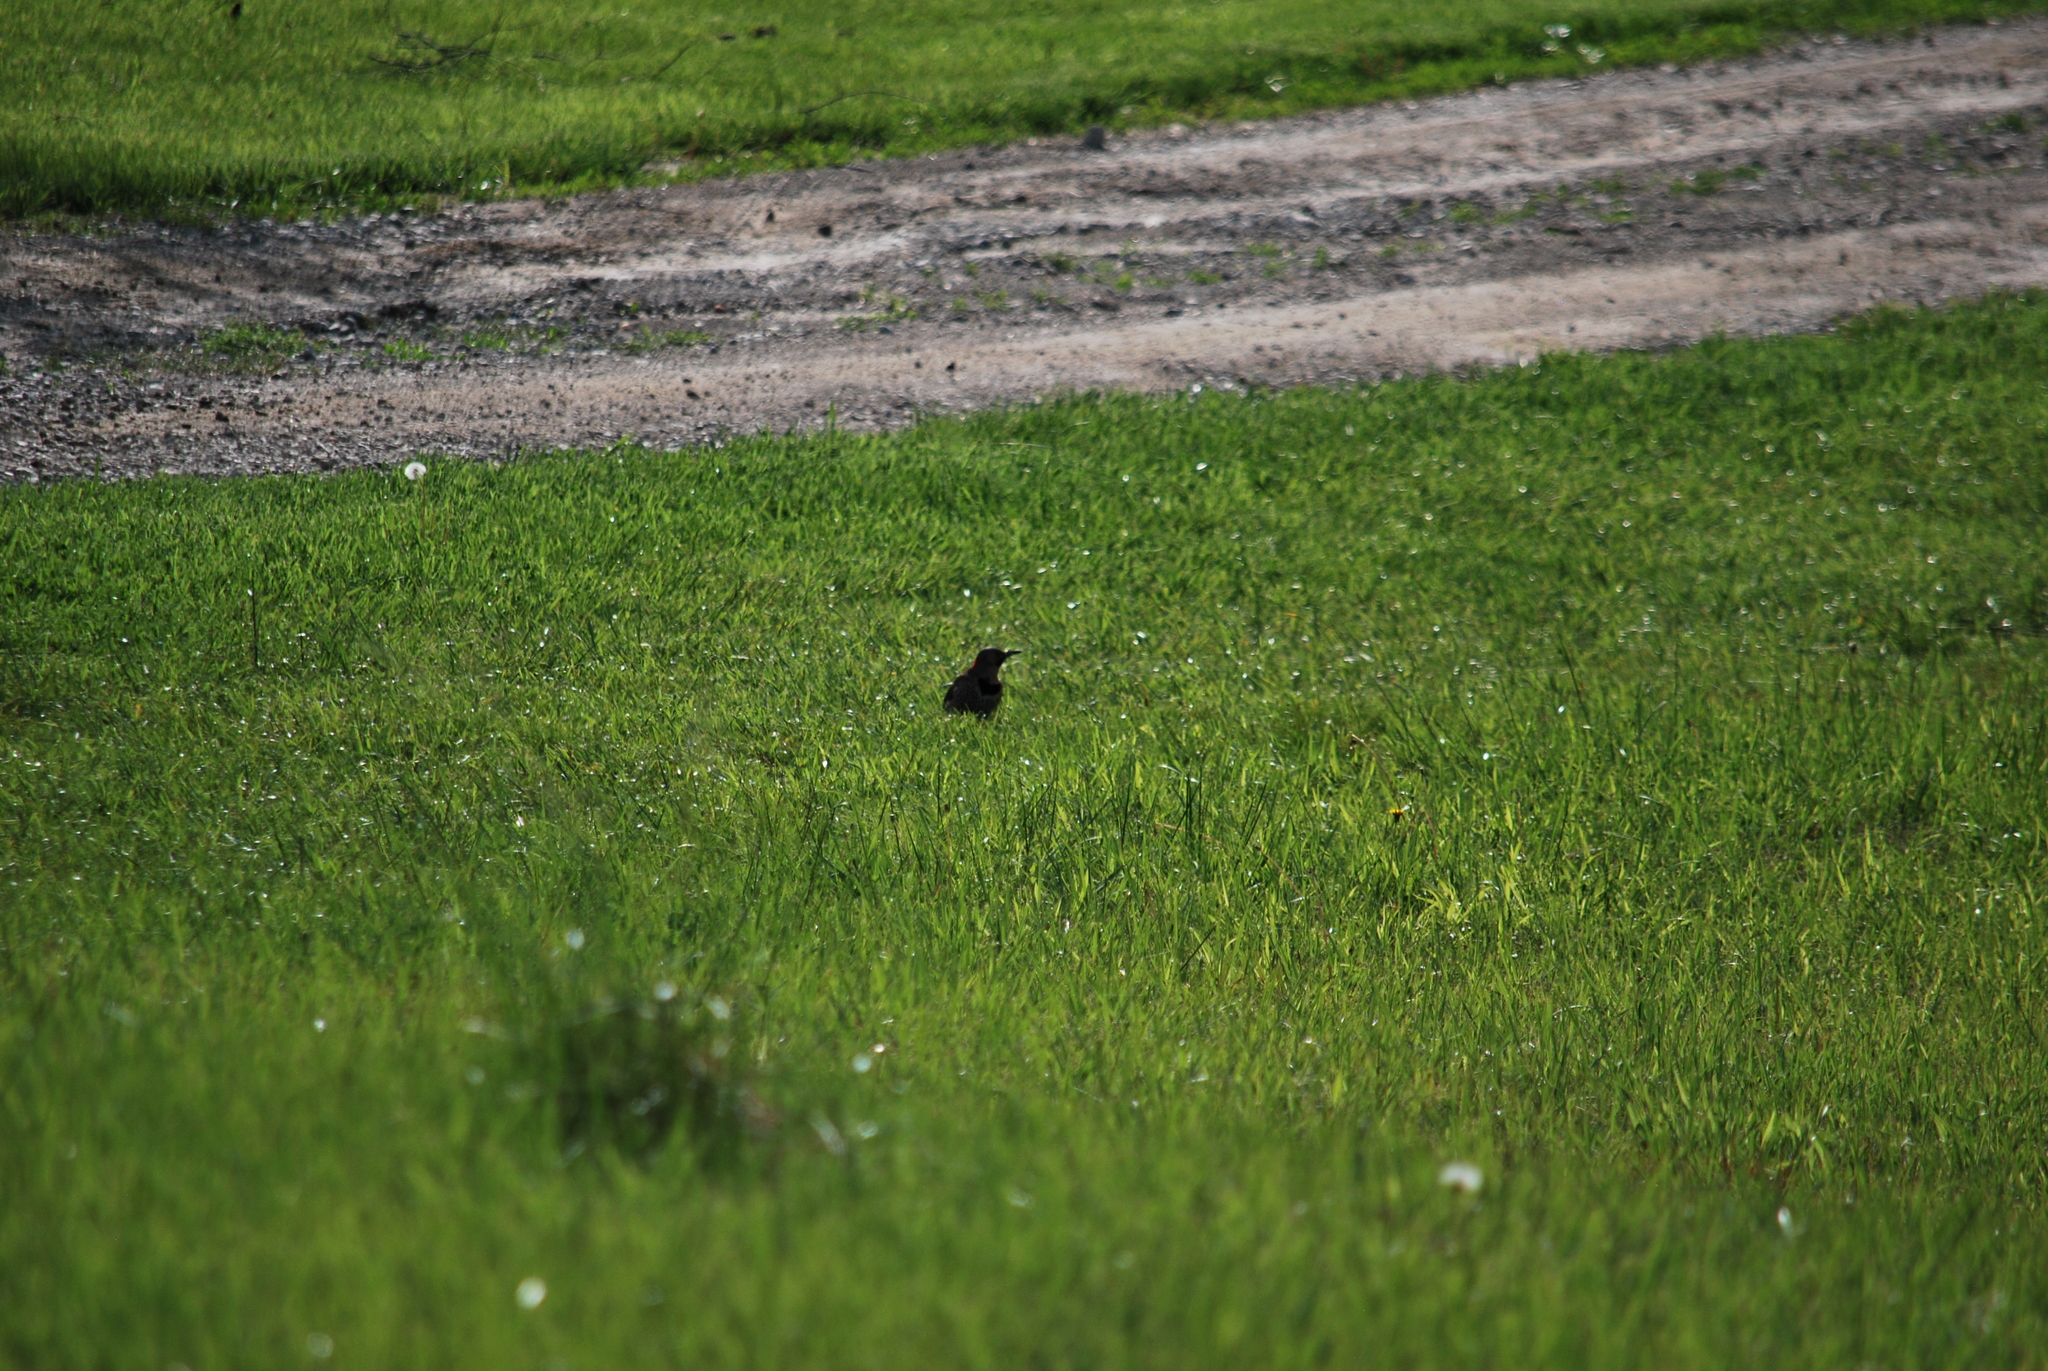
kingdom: Animalia
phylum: Chordata
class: Aves
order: Piciformes
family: Picidae
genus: Colaptes
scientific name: Colaptes auratus
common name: Northern flicker
